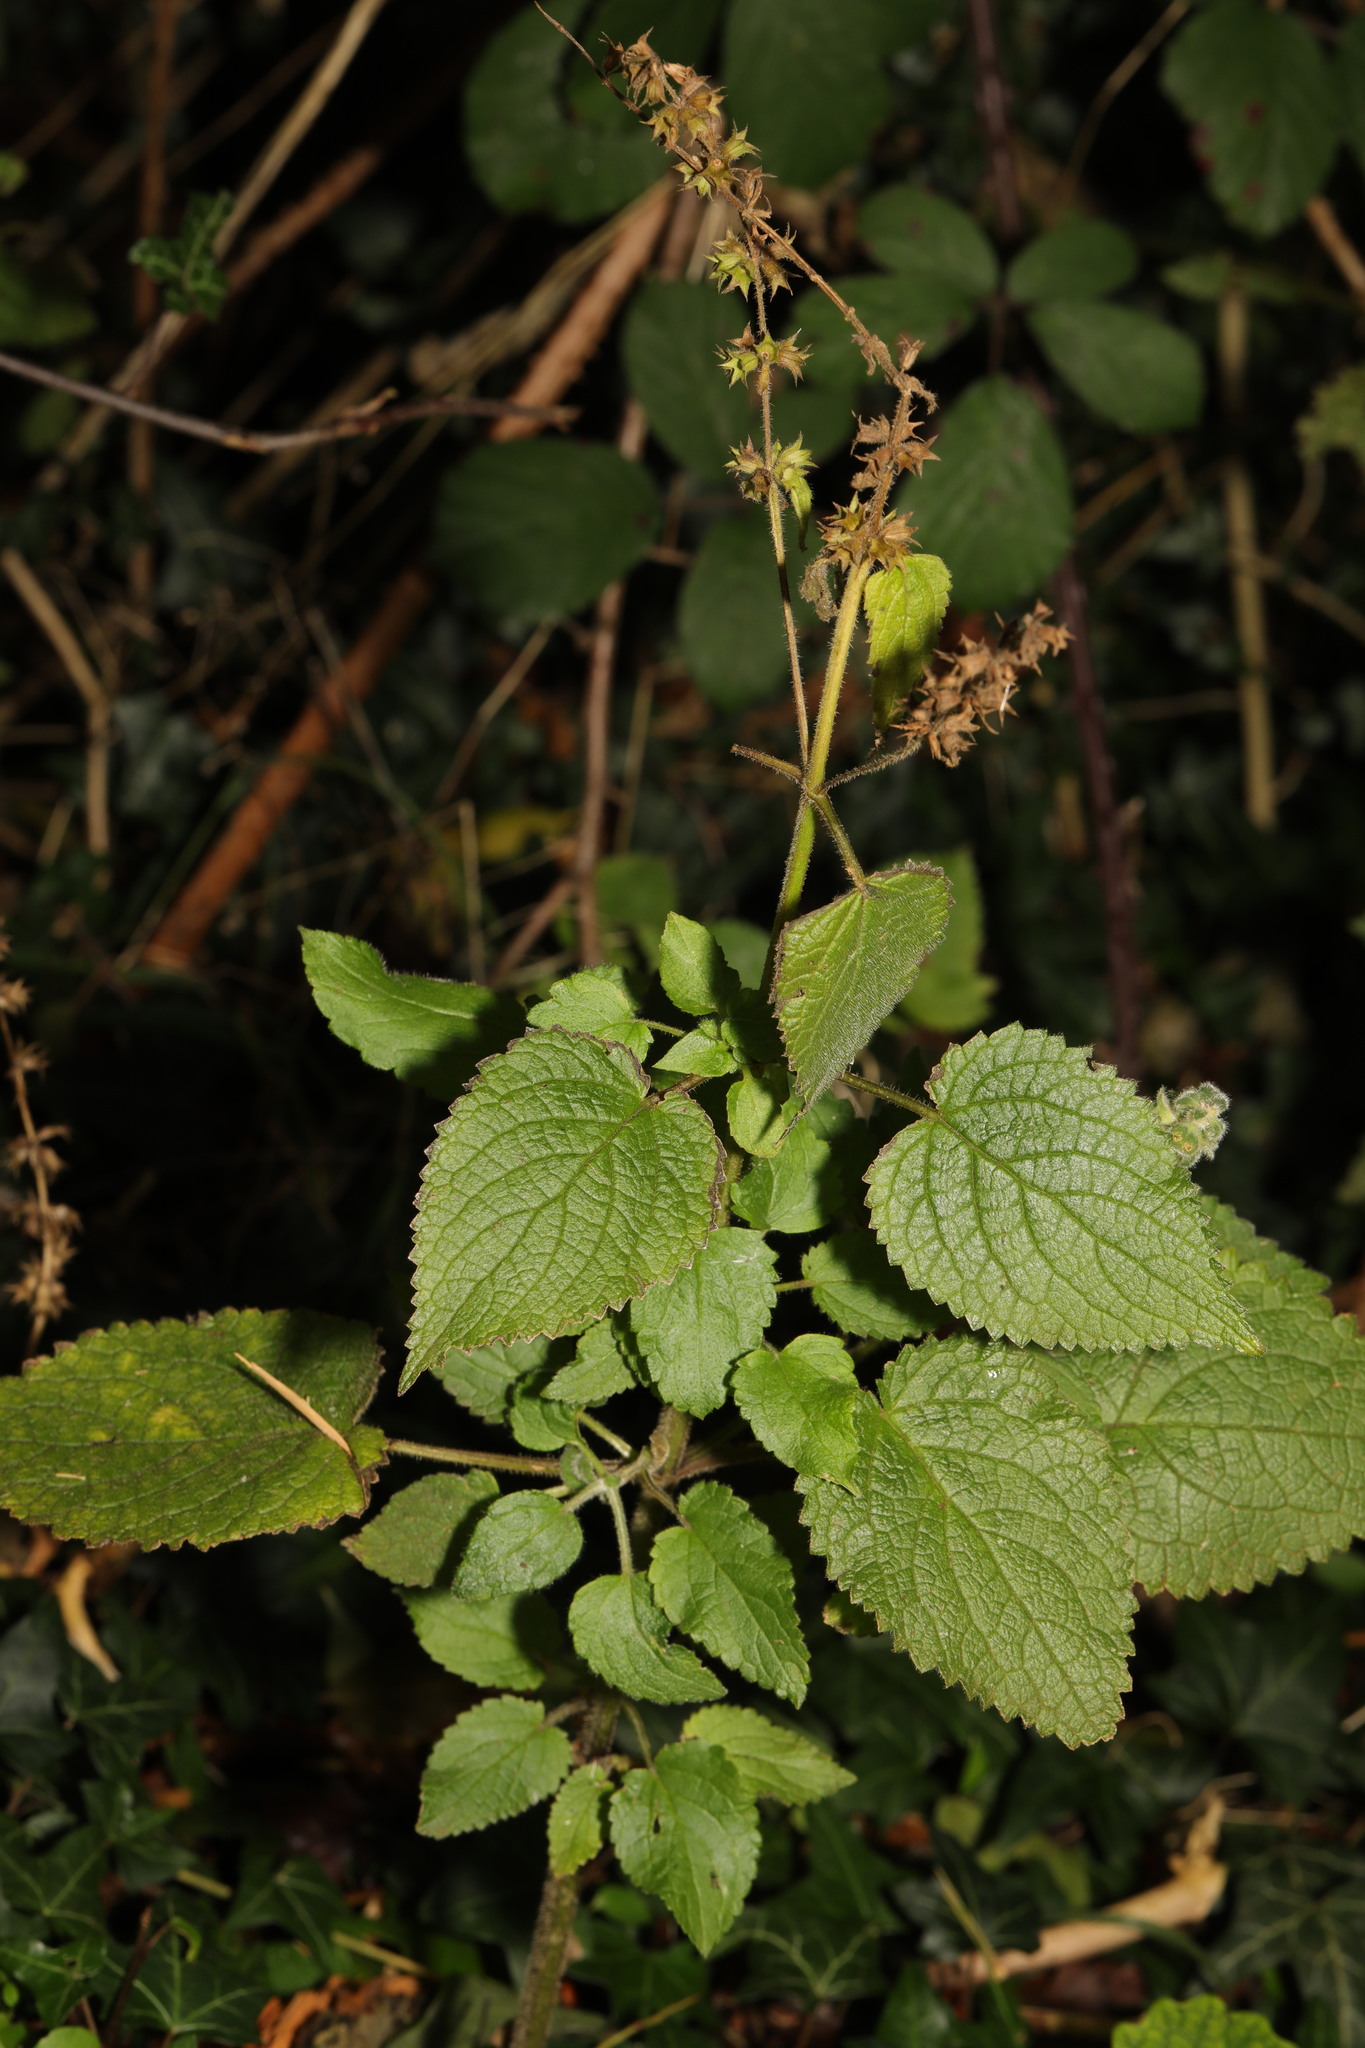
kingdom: Plantae
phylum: Tracheophyta
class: Magnoliopsida
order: Lamiales
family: Lamiaceae
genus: Stachys
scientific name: Stachys sylvatica
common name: Hedge woundwort
